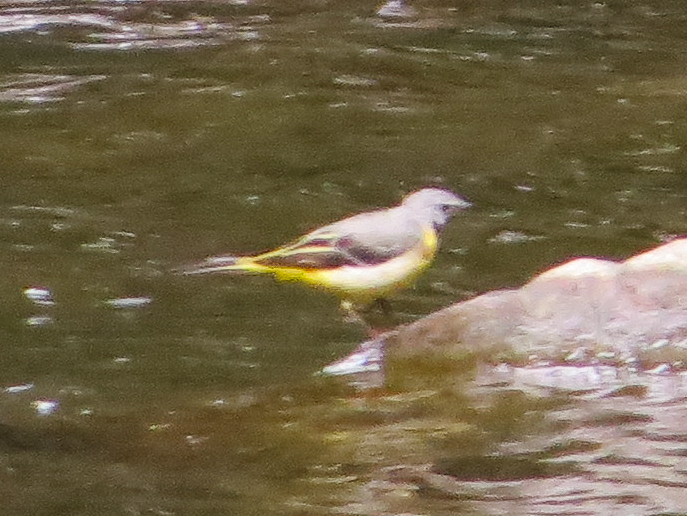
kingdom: Animalia
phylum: Chordata
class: Aves
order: Passeriformes
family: Motacillidae
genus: Motacilla
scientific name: Motacilla cinerea
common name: Grey wagtail
